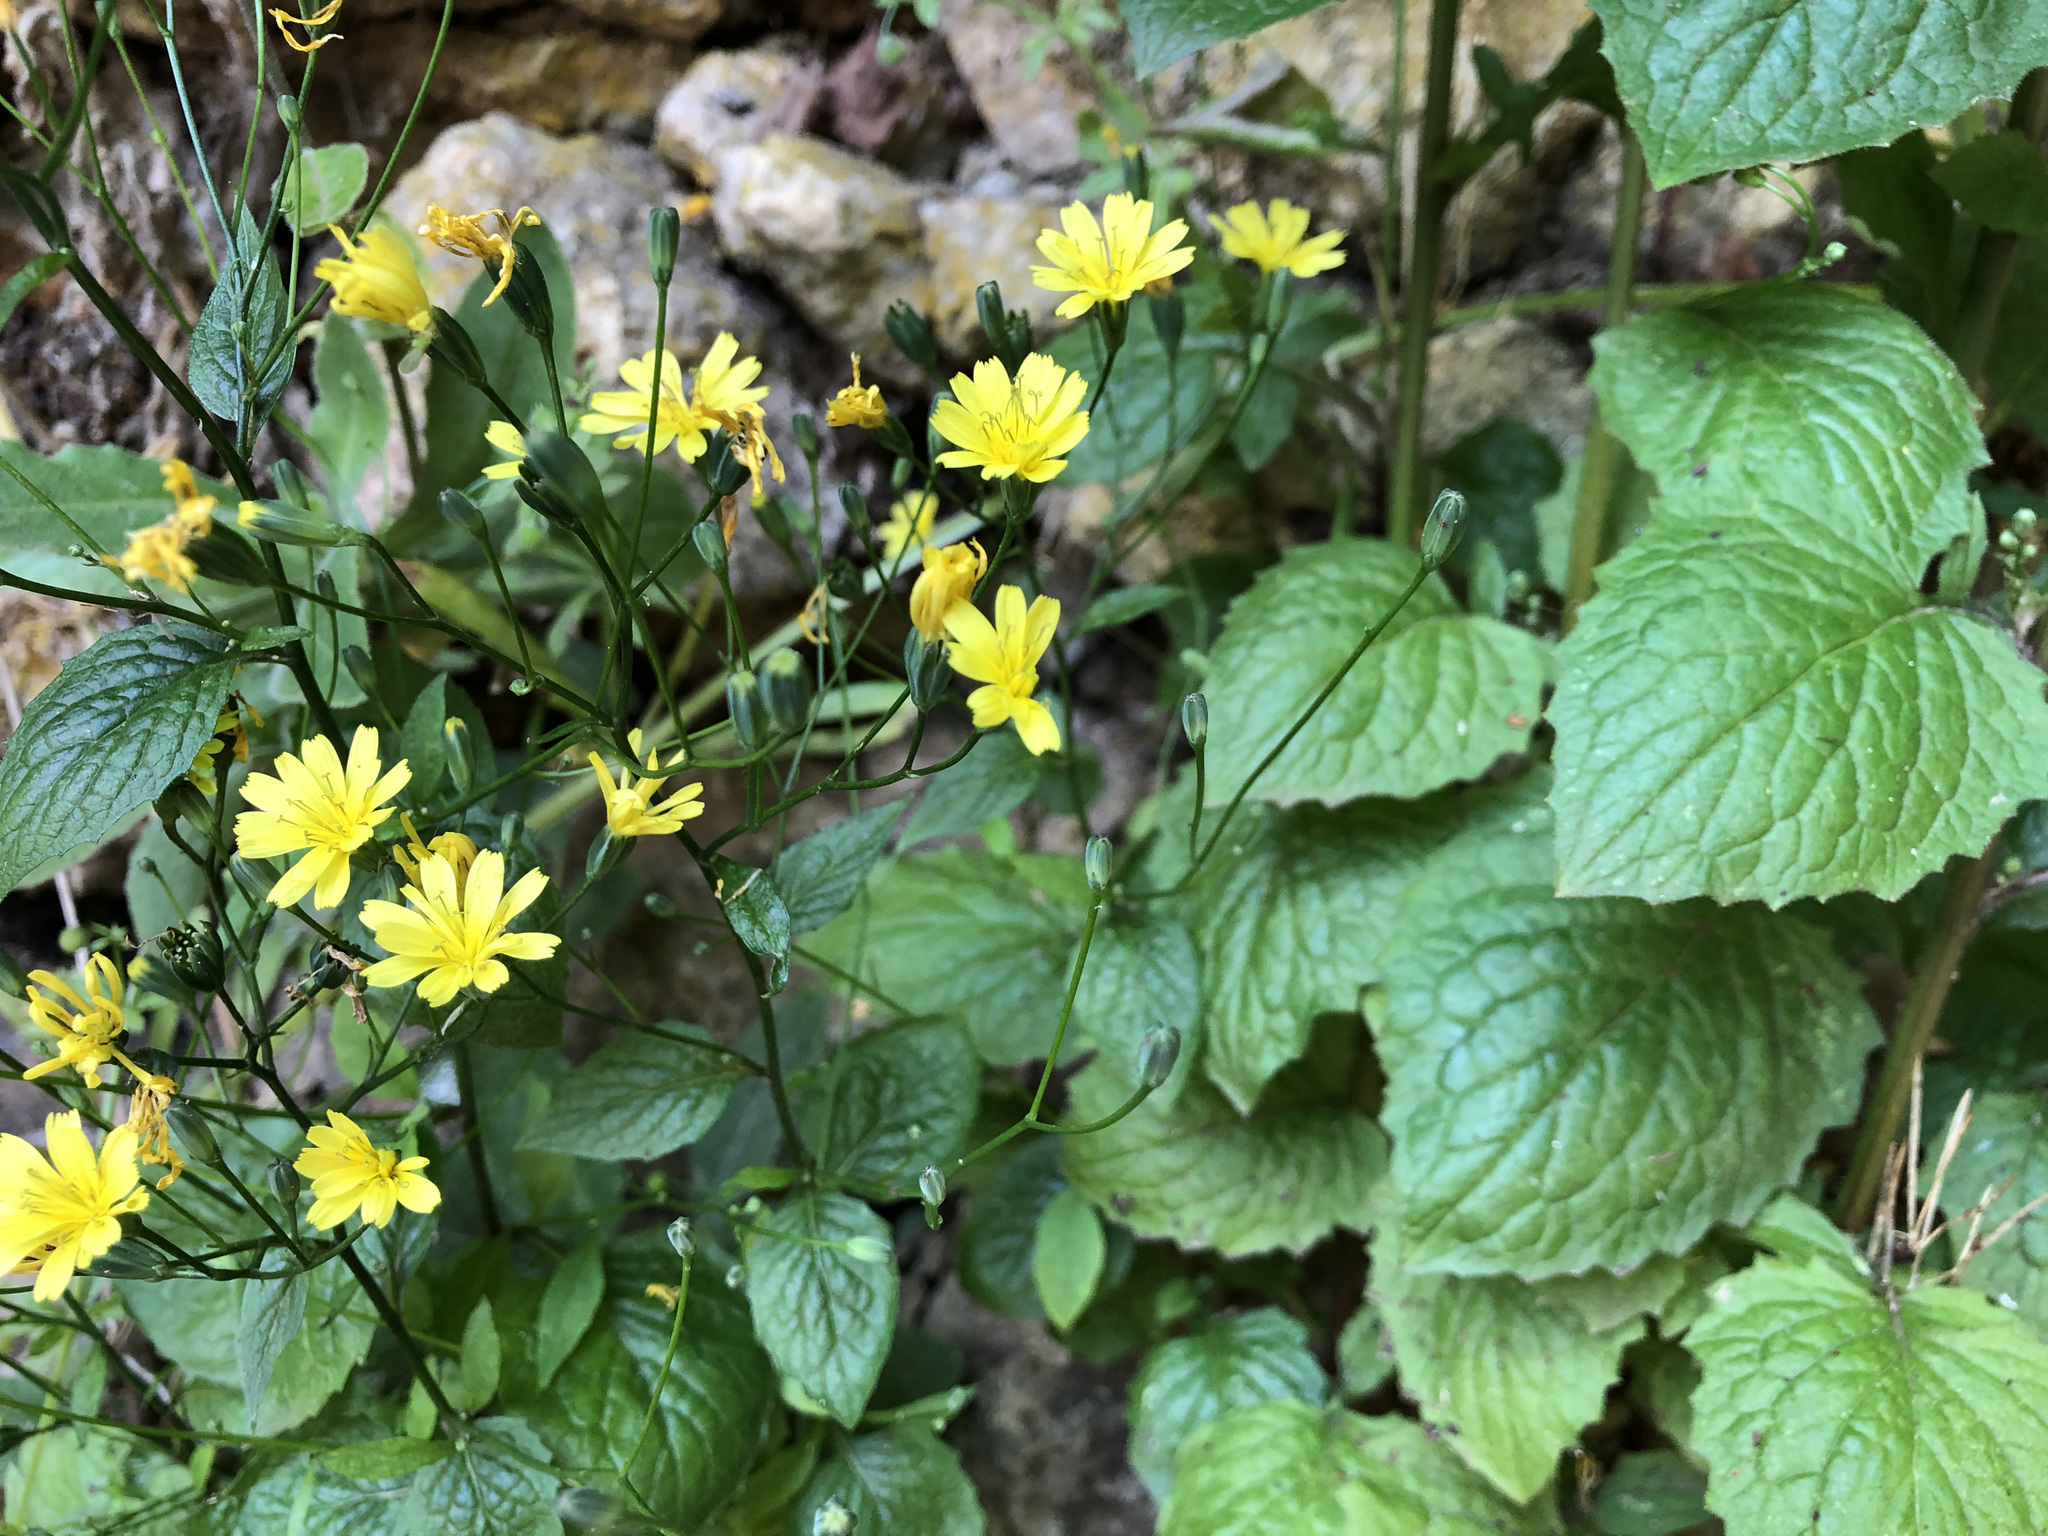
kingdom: Plantae
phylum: Tracheophyta
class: Magnoliopsida
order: Asterales
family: Asteraceae
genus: Lapsana
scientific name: Lapsana communis
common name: Nipplewort
